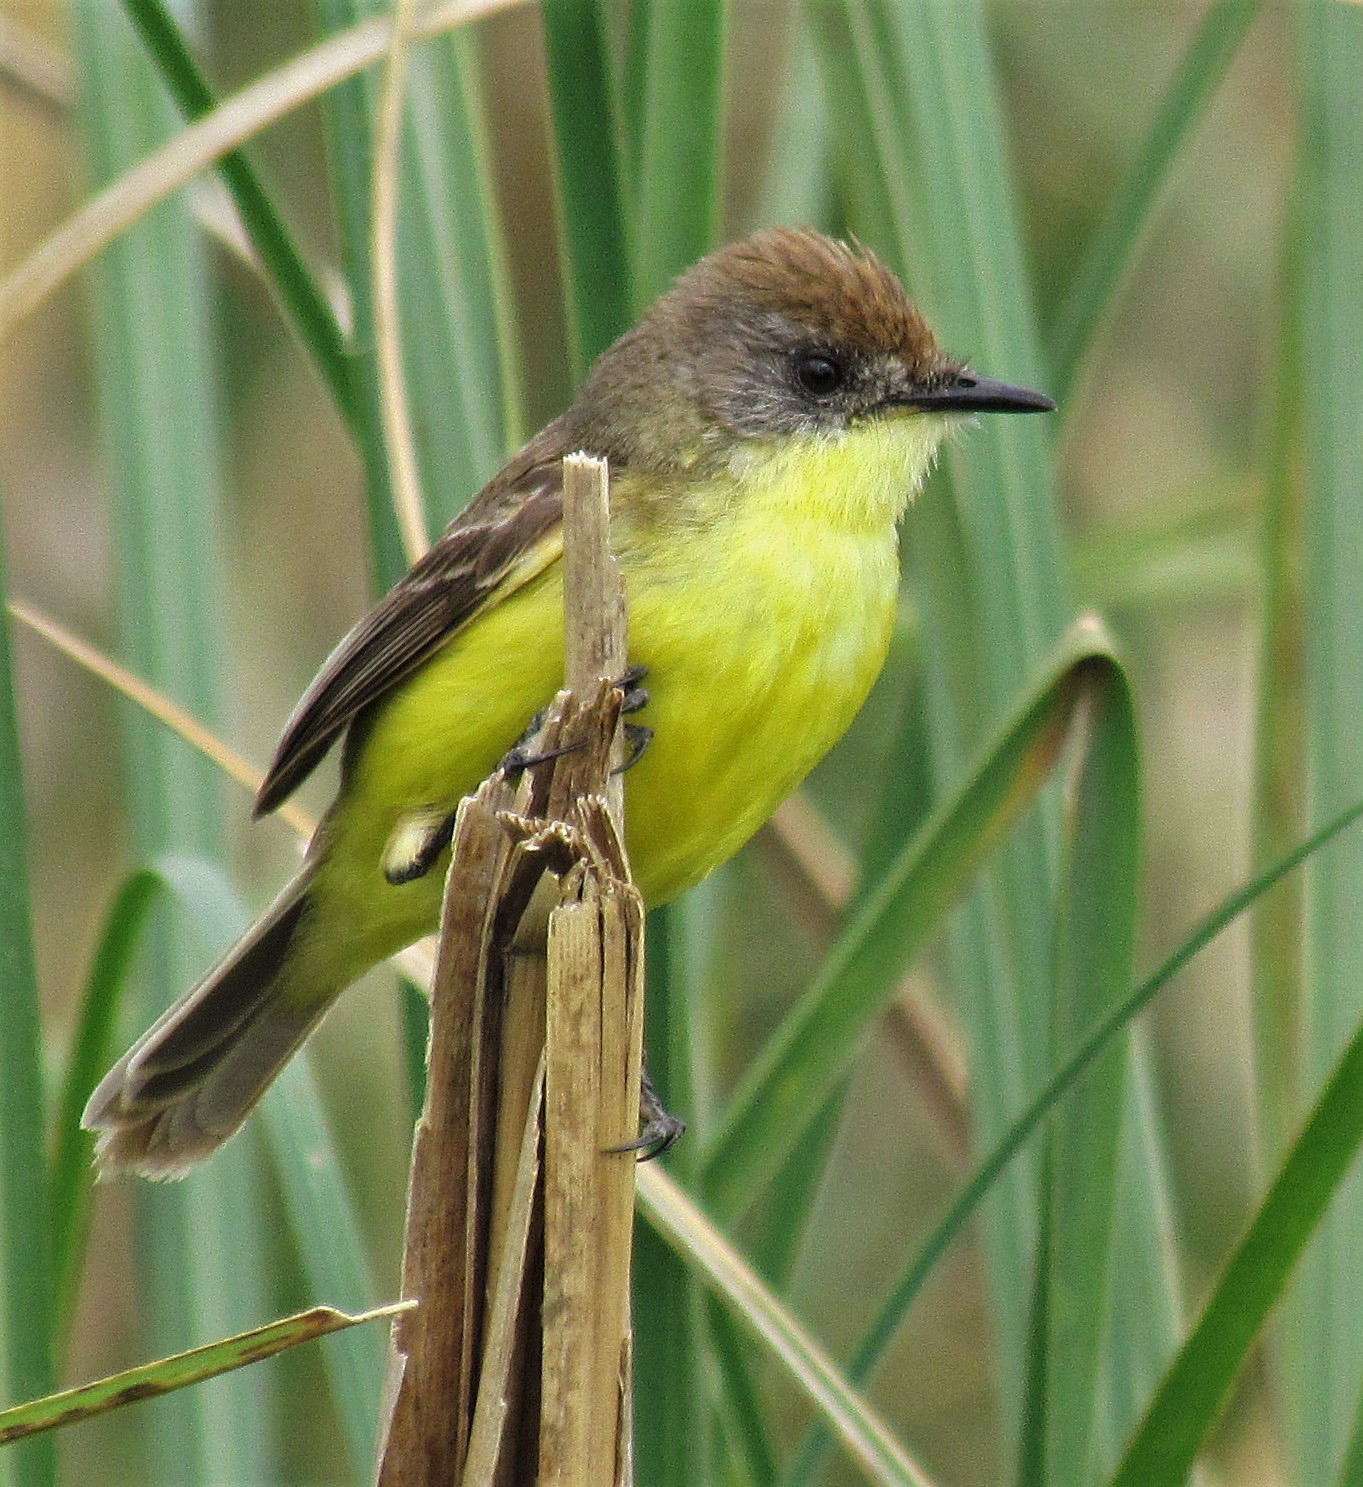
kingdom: Animalia
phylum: Chordata
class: Aves
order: Passeriformes
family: Tyrannidae
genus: Pseudocolopteryx
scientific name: Pseudocolopteryx flaviventris
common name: Warbling doradito
